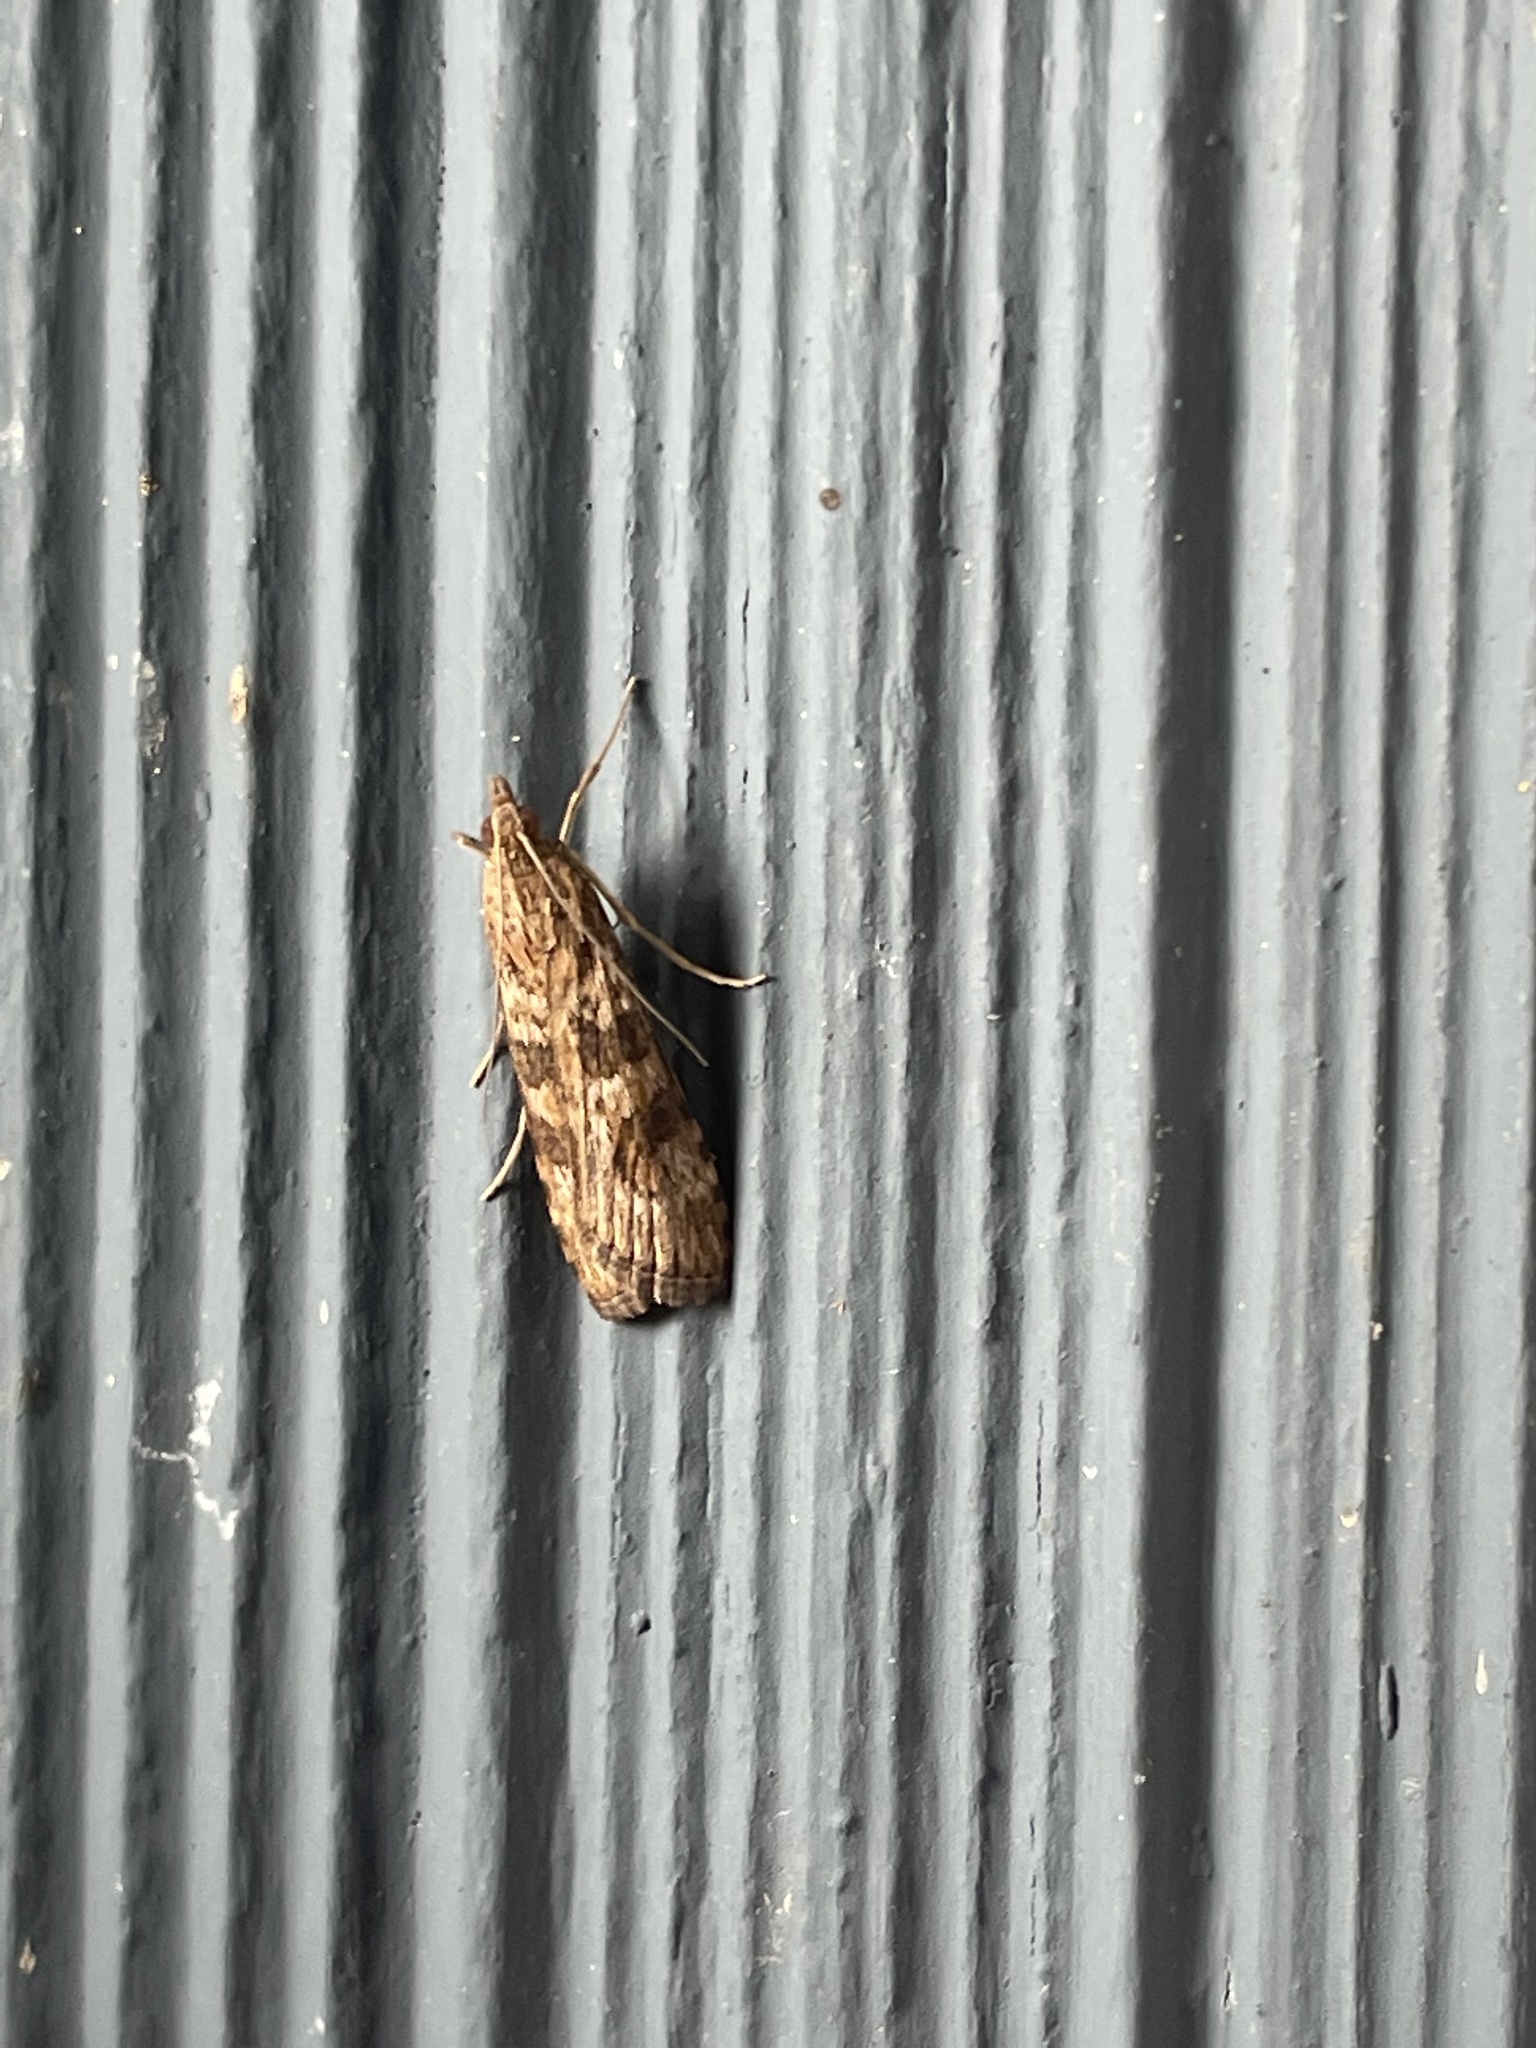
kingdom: Animalia
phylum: Arthropoda
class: Insecta
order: Lepidoptera
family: Crambidae
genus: Nomophila
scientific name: Nomophila nearctica
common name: American rush veneer
